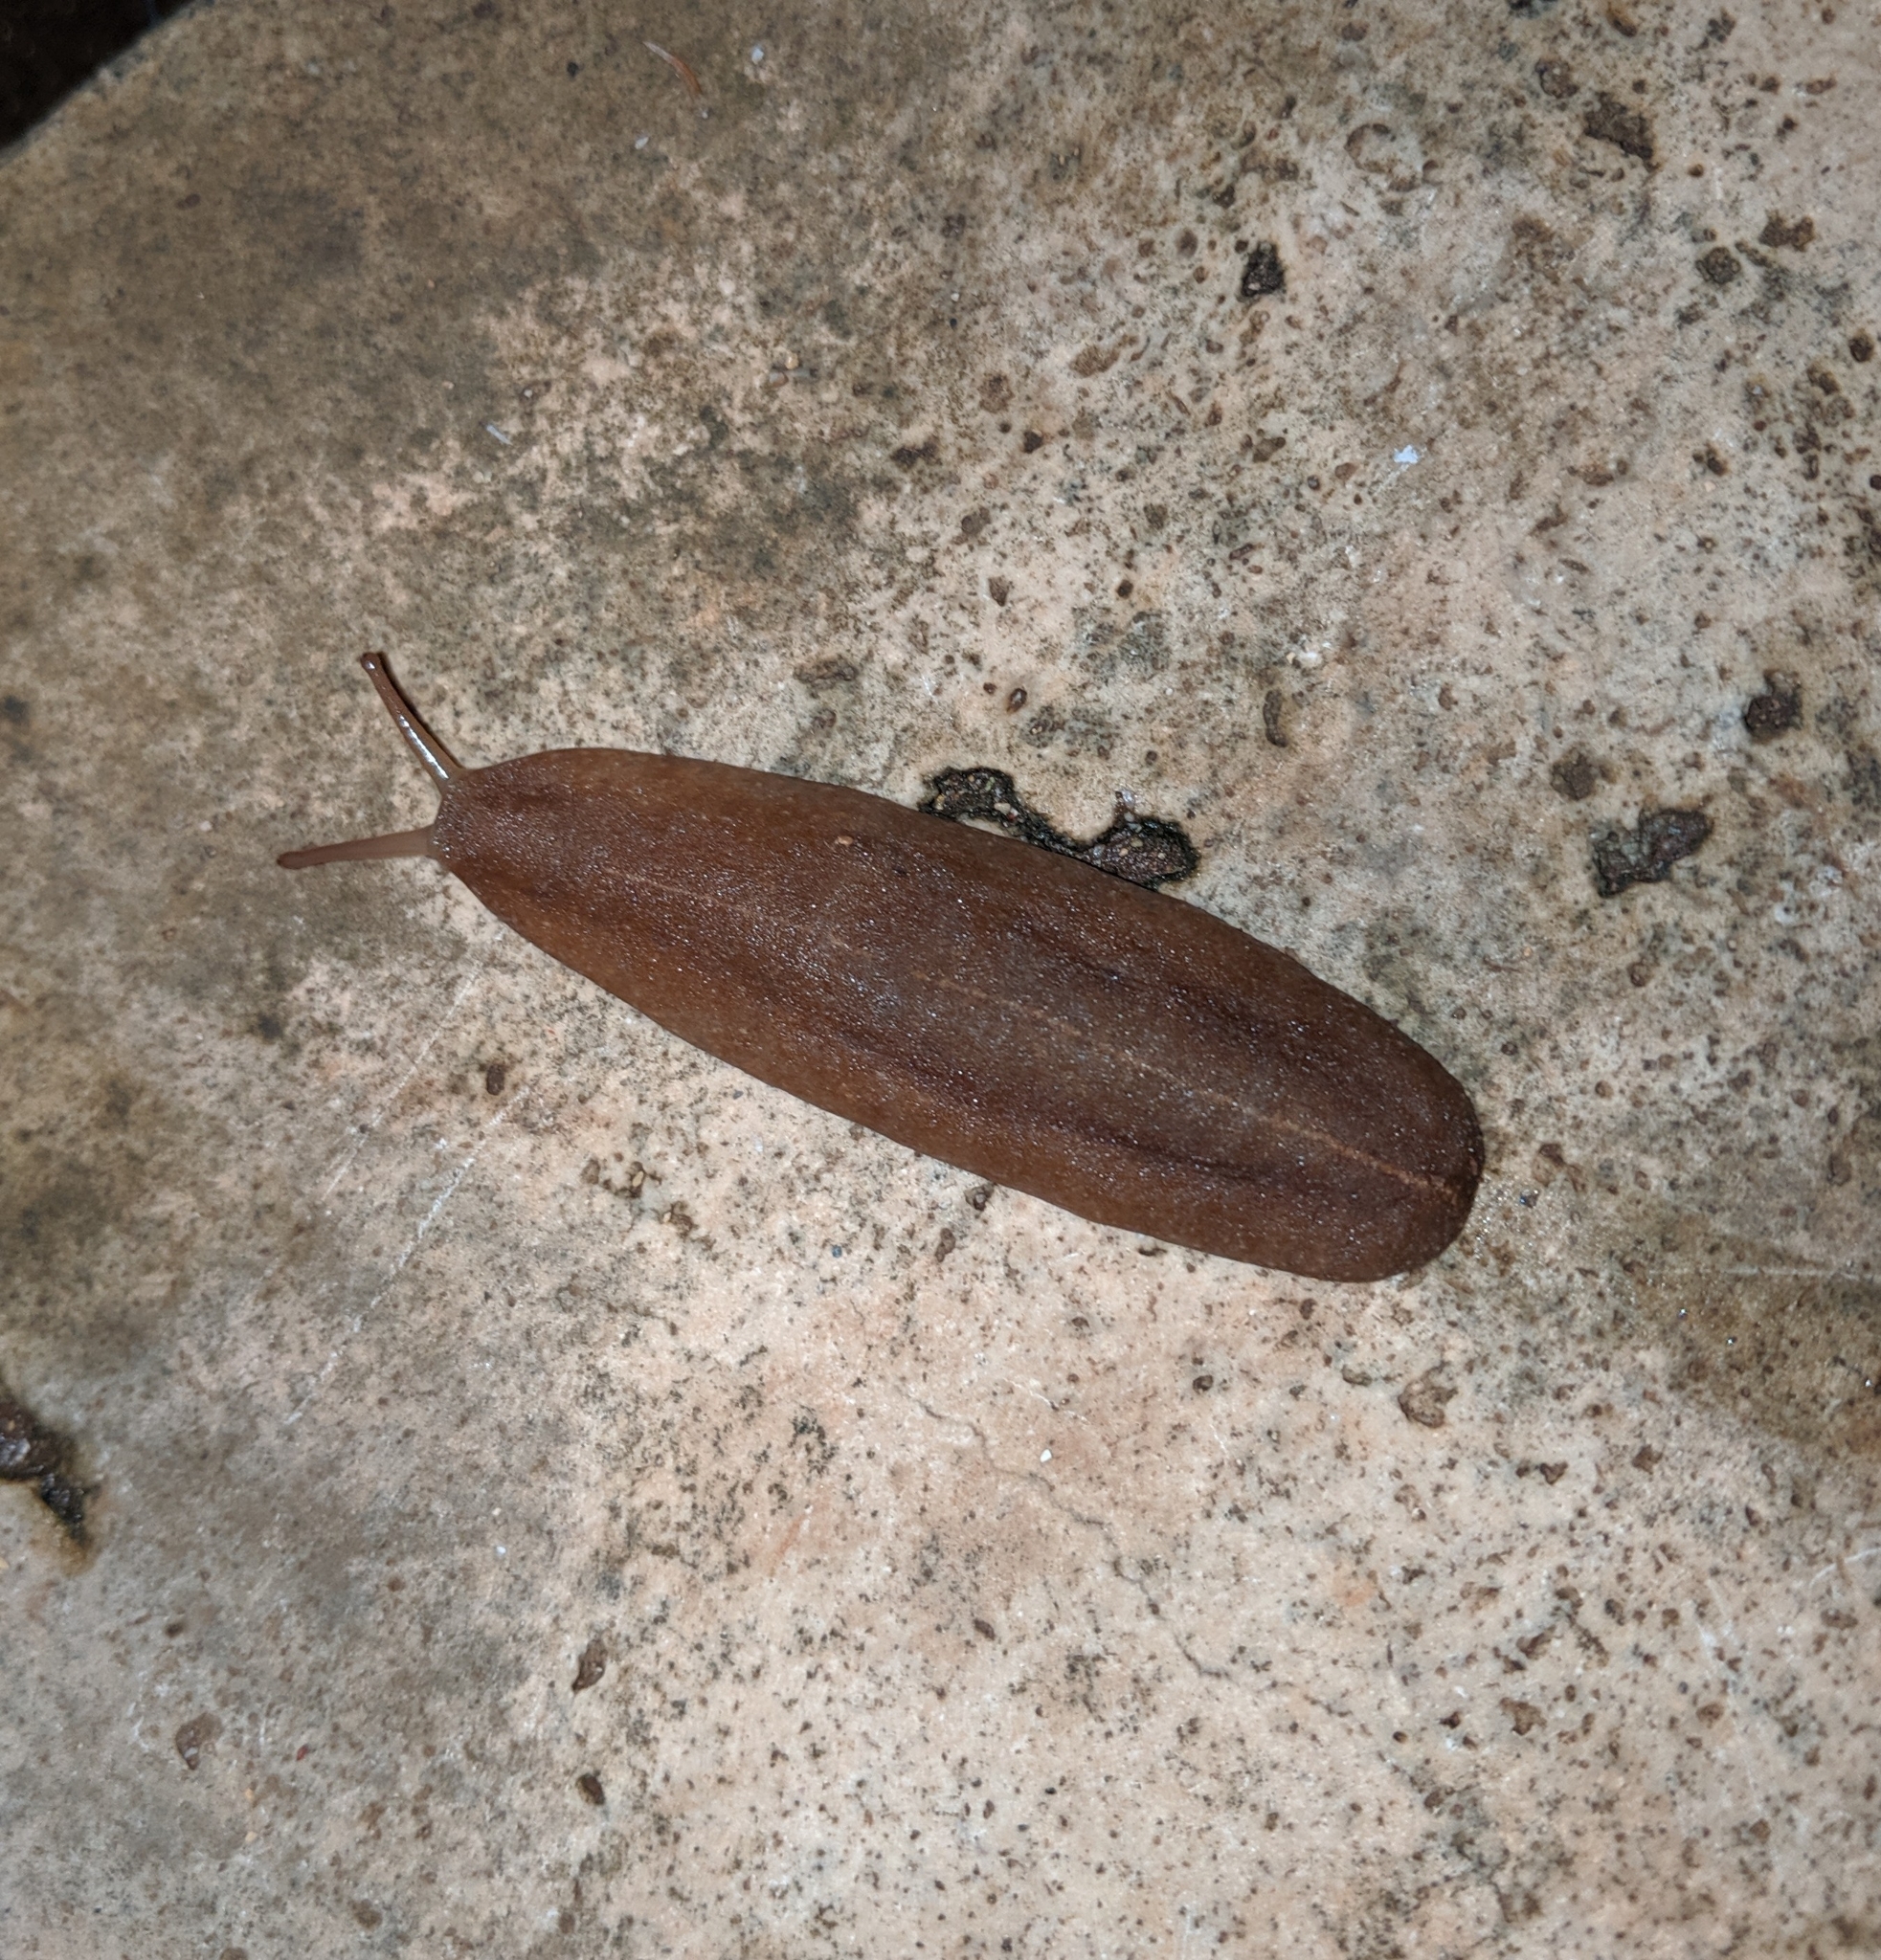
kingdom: Animalia
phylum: Mollusca
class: Gastropoda
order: Systellommatophora
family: Veronicellidae
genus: Veronicella
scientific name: Veronicella cubensis
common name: Two striped slug
